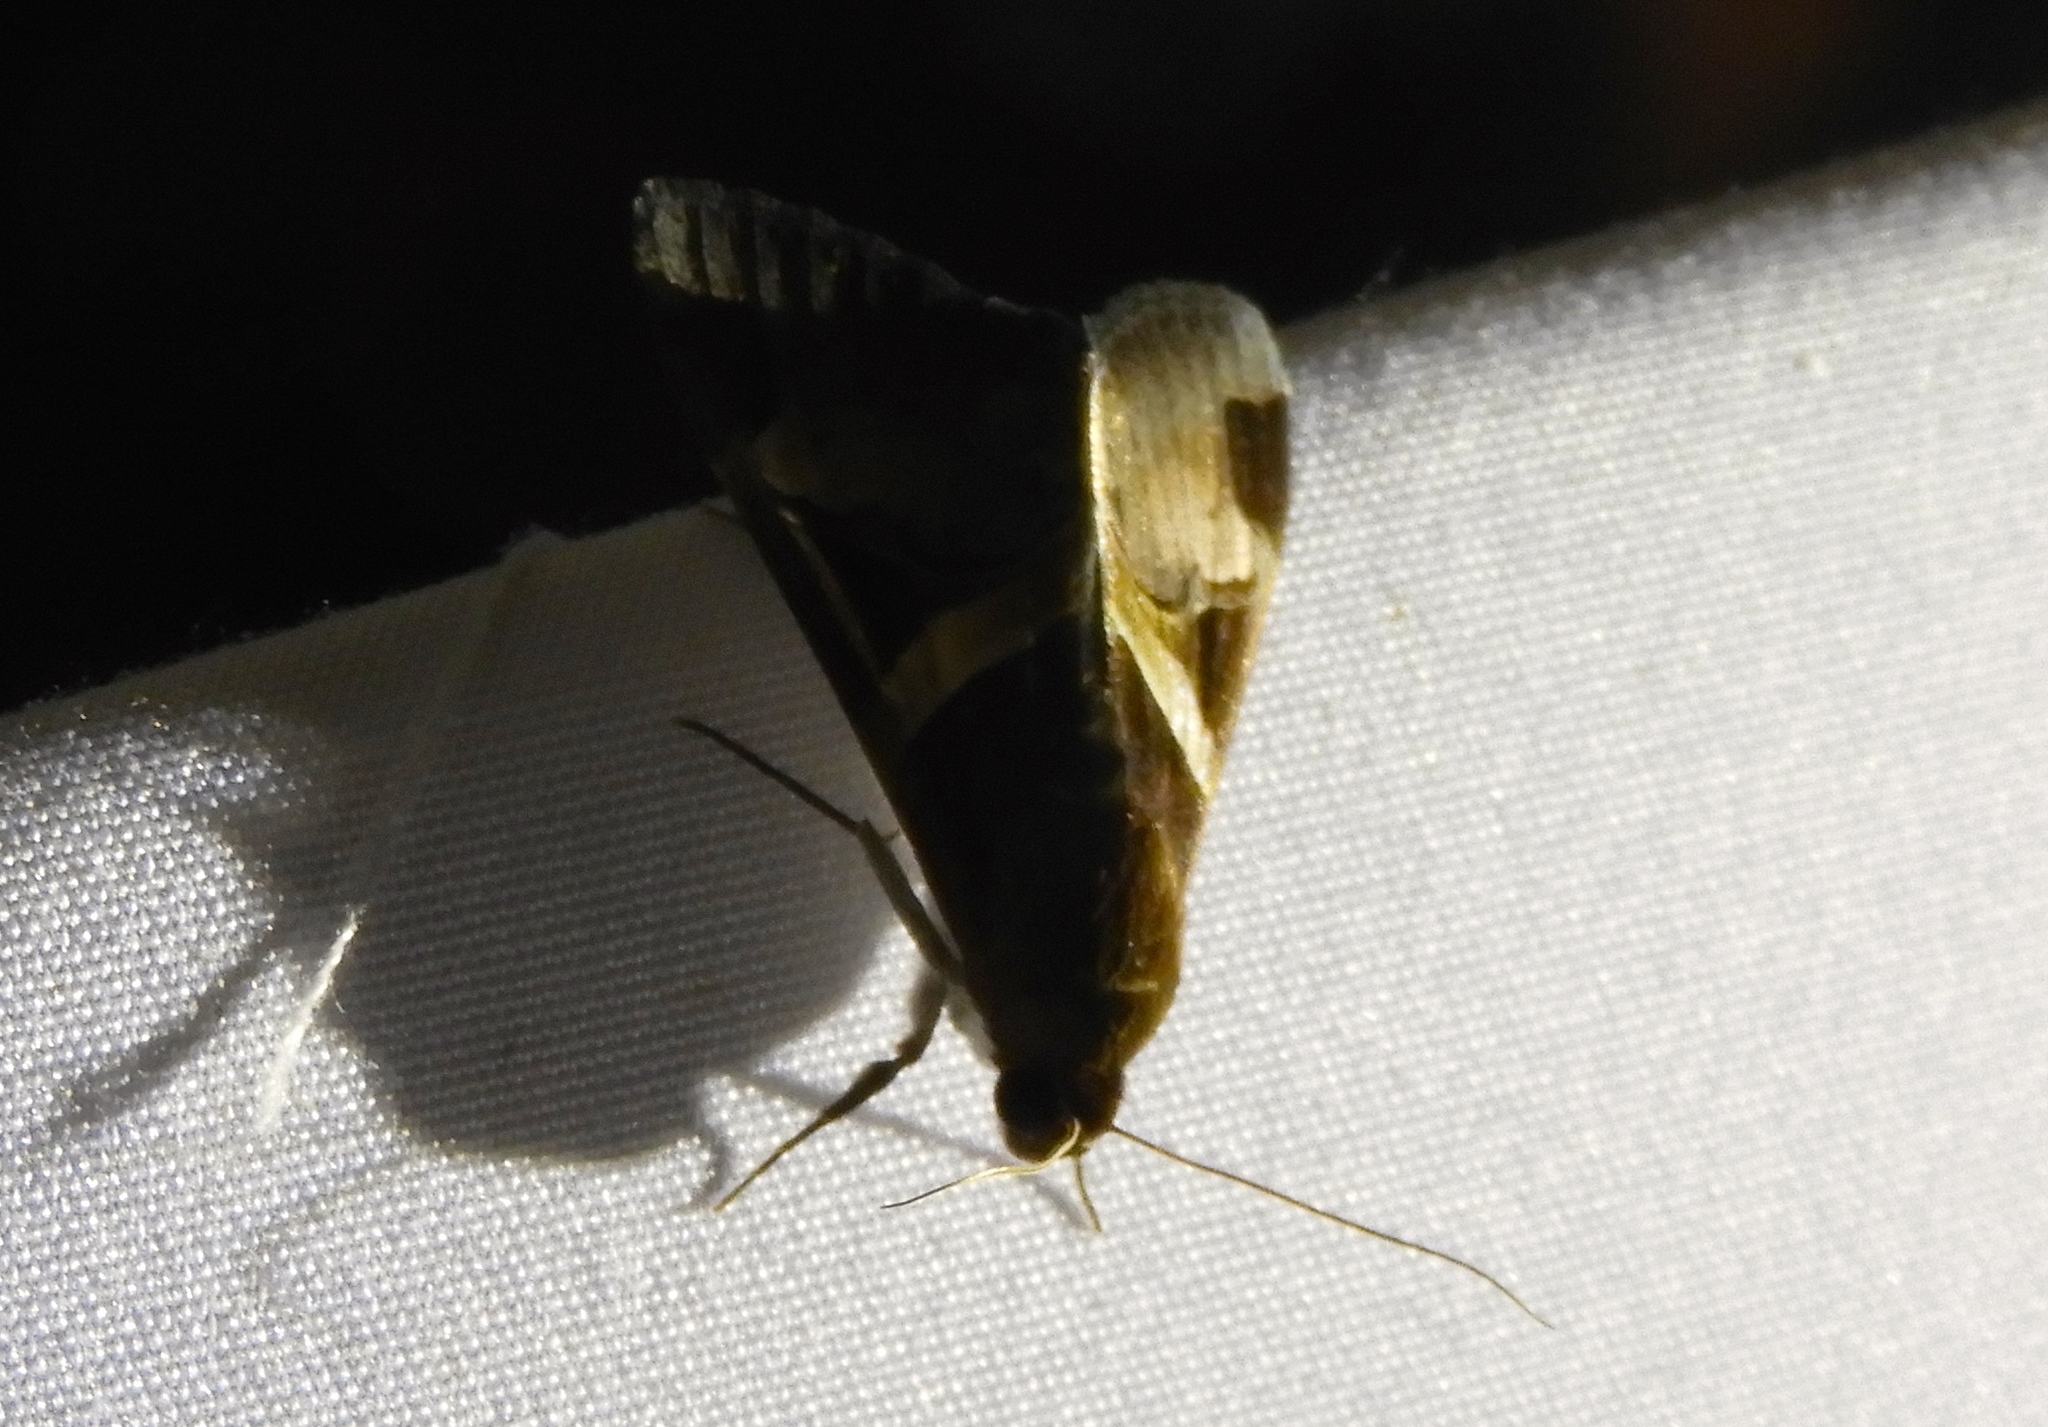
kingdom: Animalia
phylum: Arthropoda
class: Insecta
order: Lepidoptera
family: Erebidae
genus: Melipotis
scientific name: Melipotis fasciolaris
